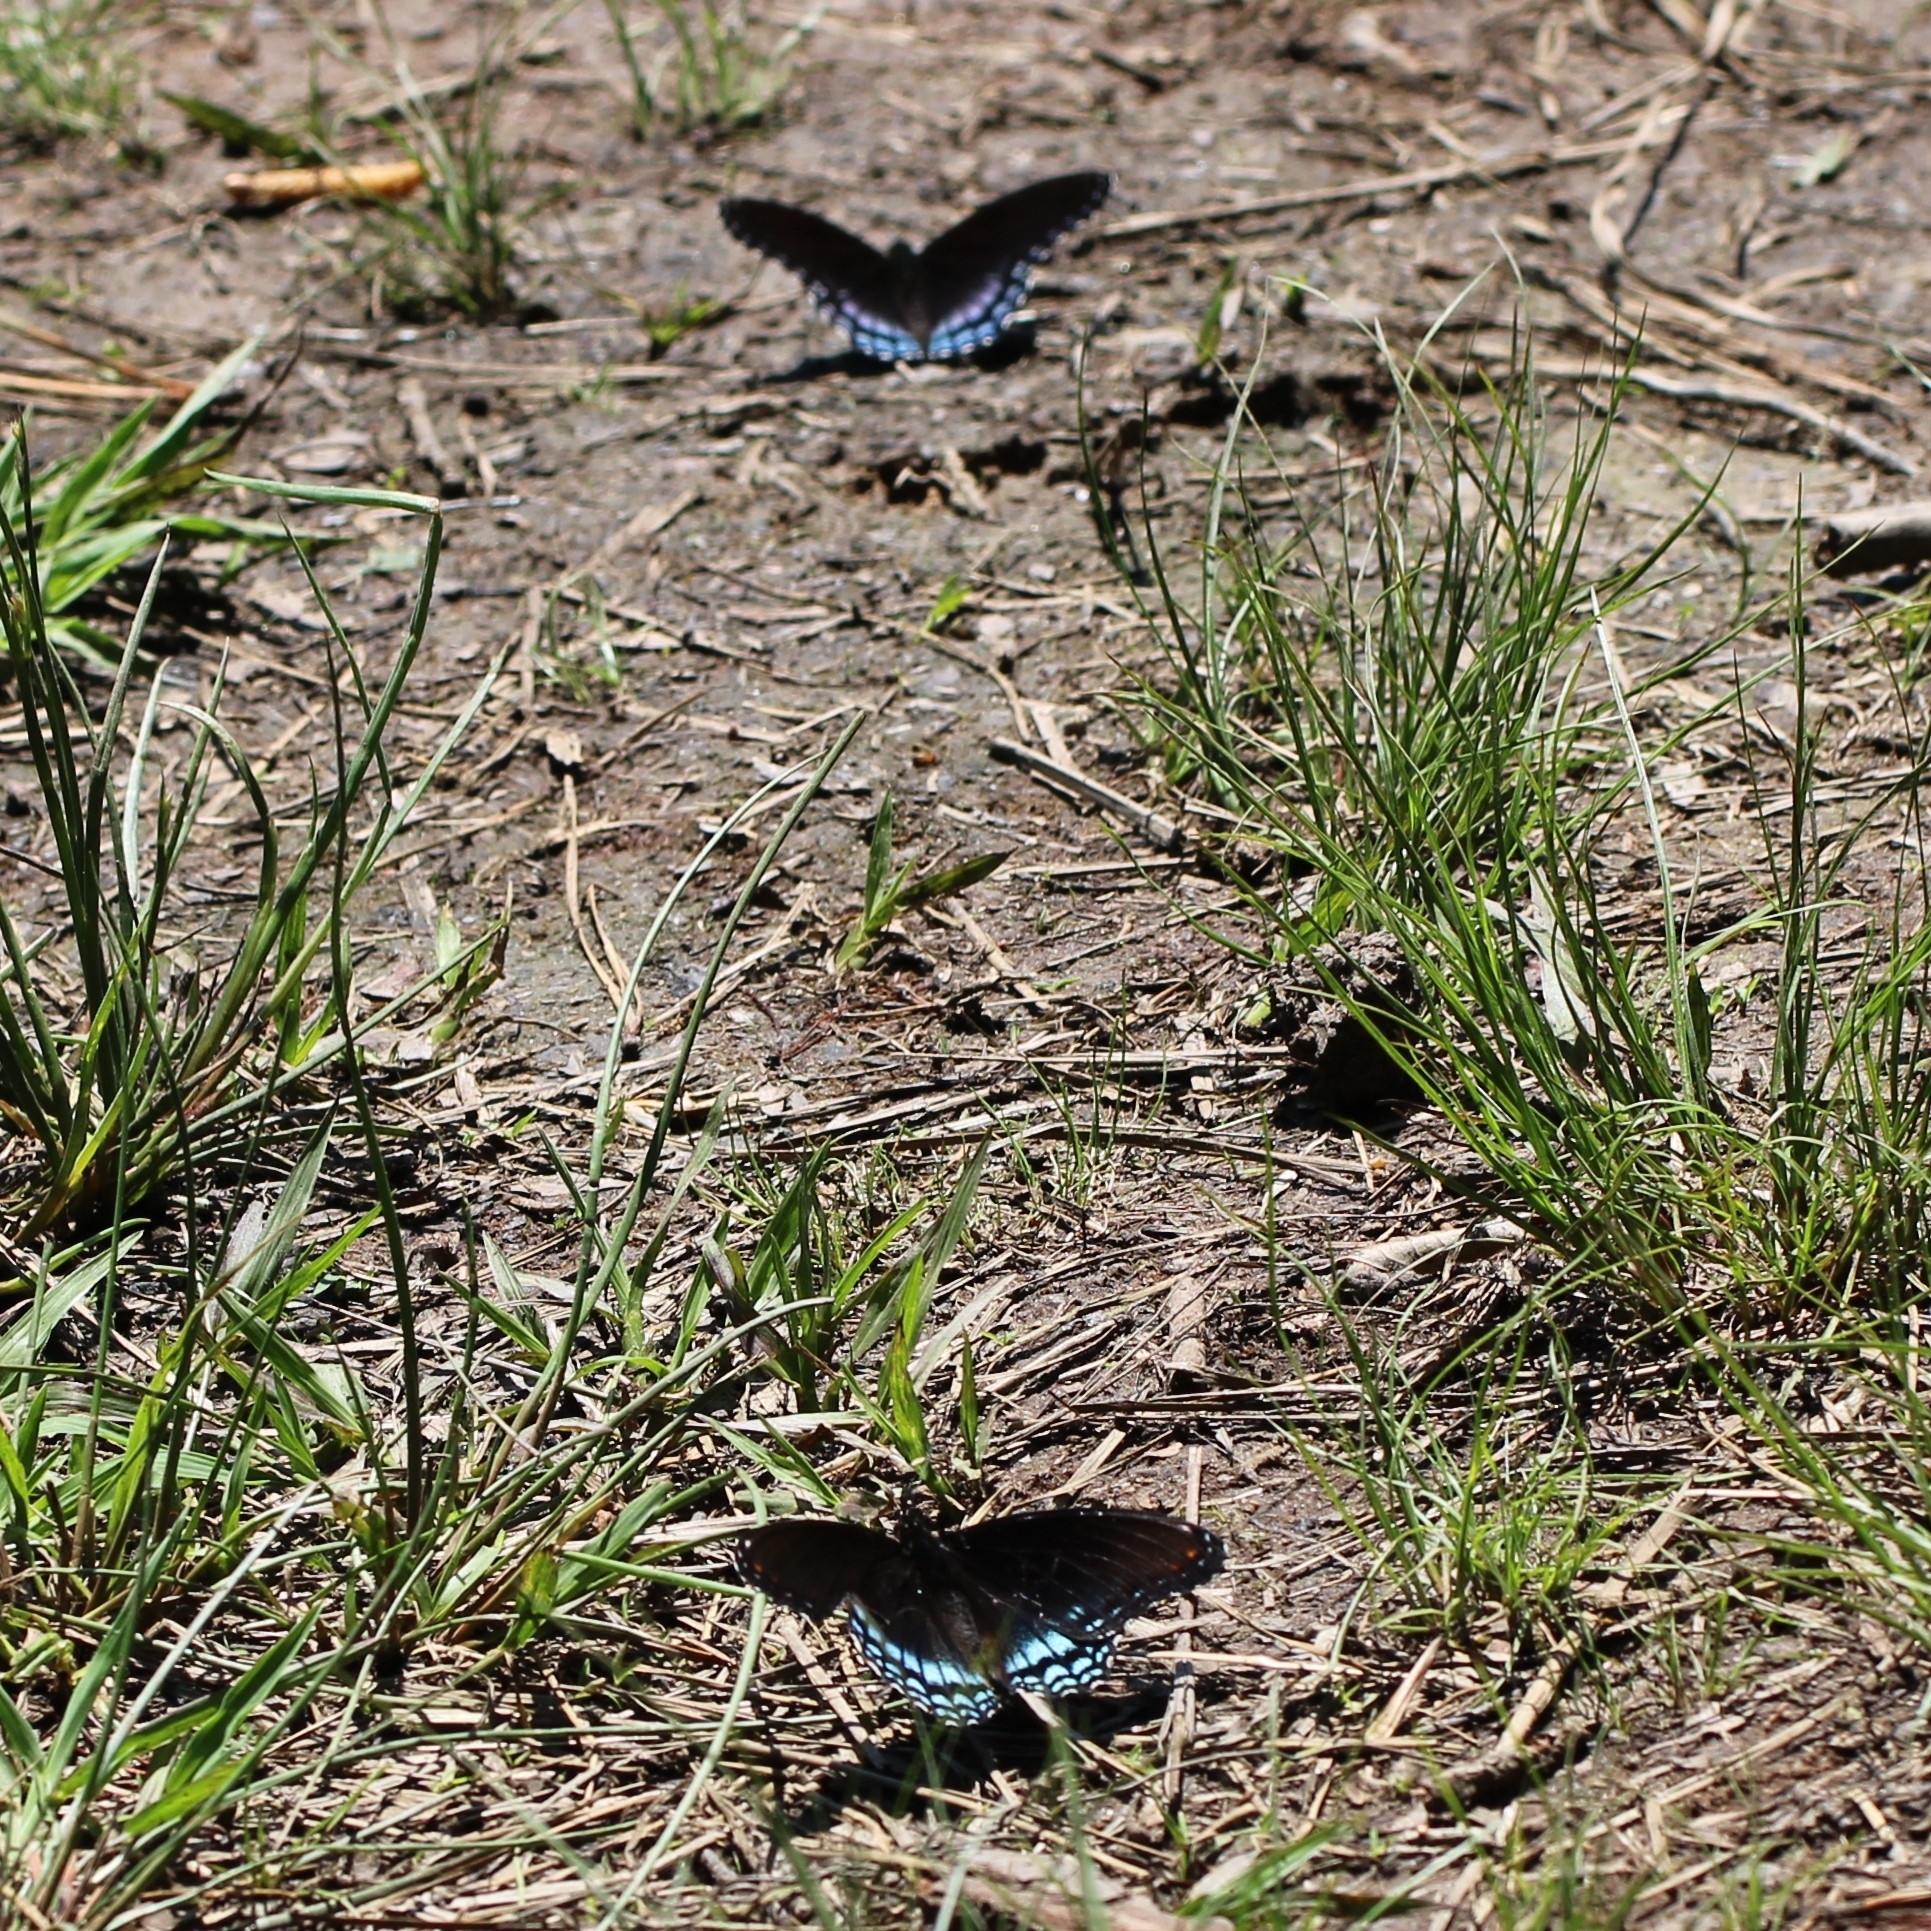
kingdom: Animalia
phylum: Arthropoda
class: Insecta
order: Lepidoptera
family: Nymphalidae
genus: Limenitis
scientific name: Limenitis astyanax
